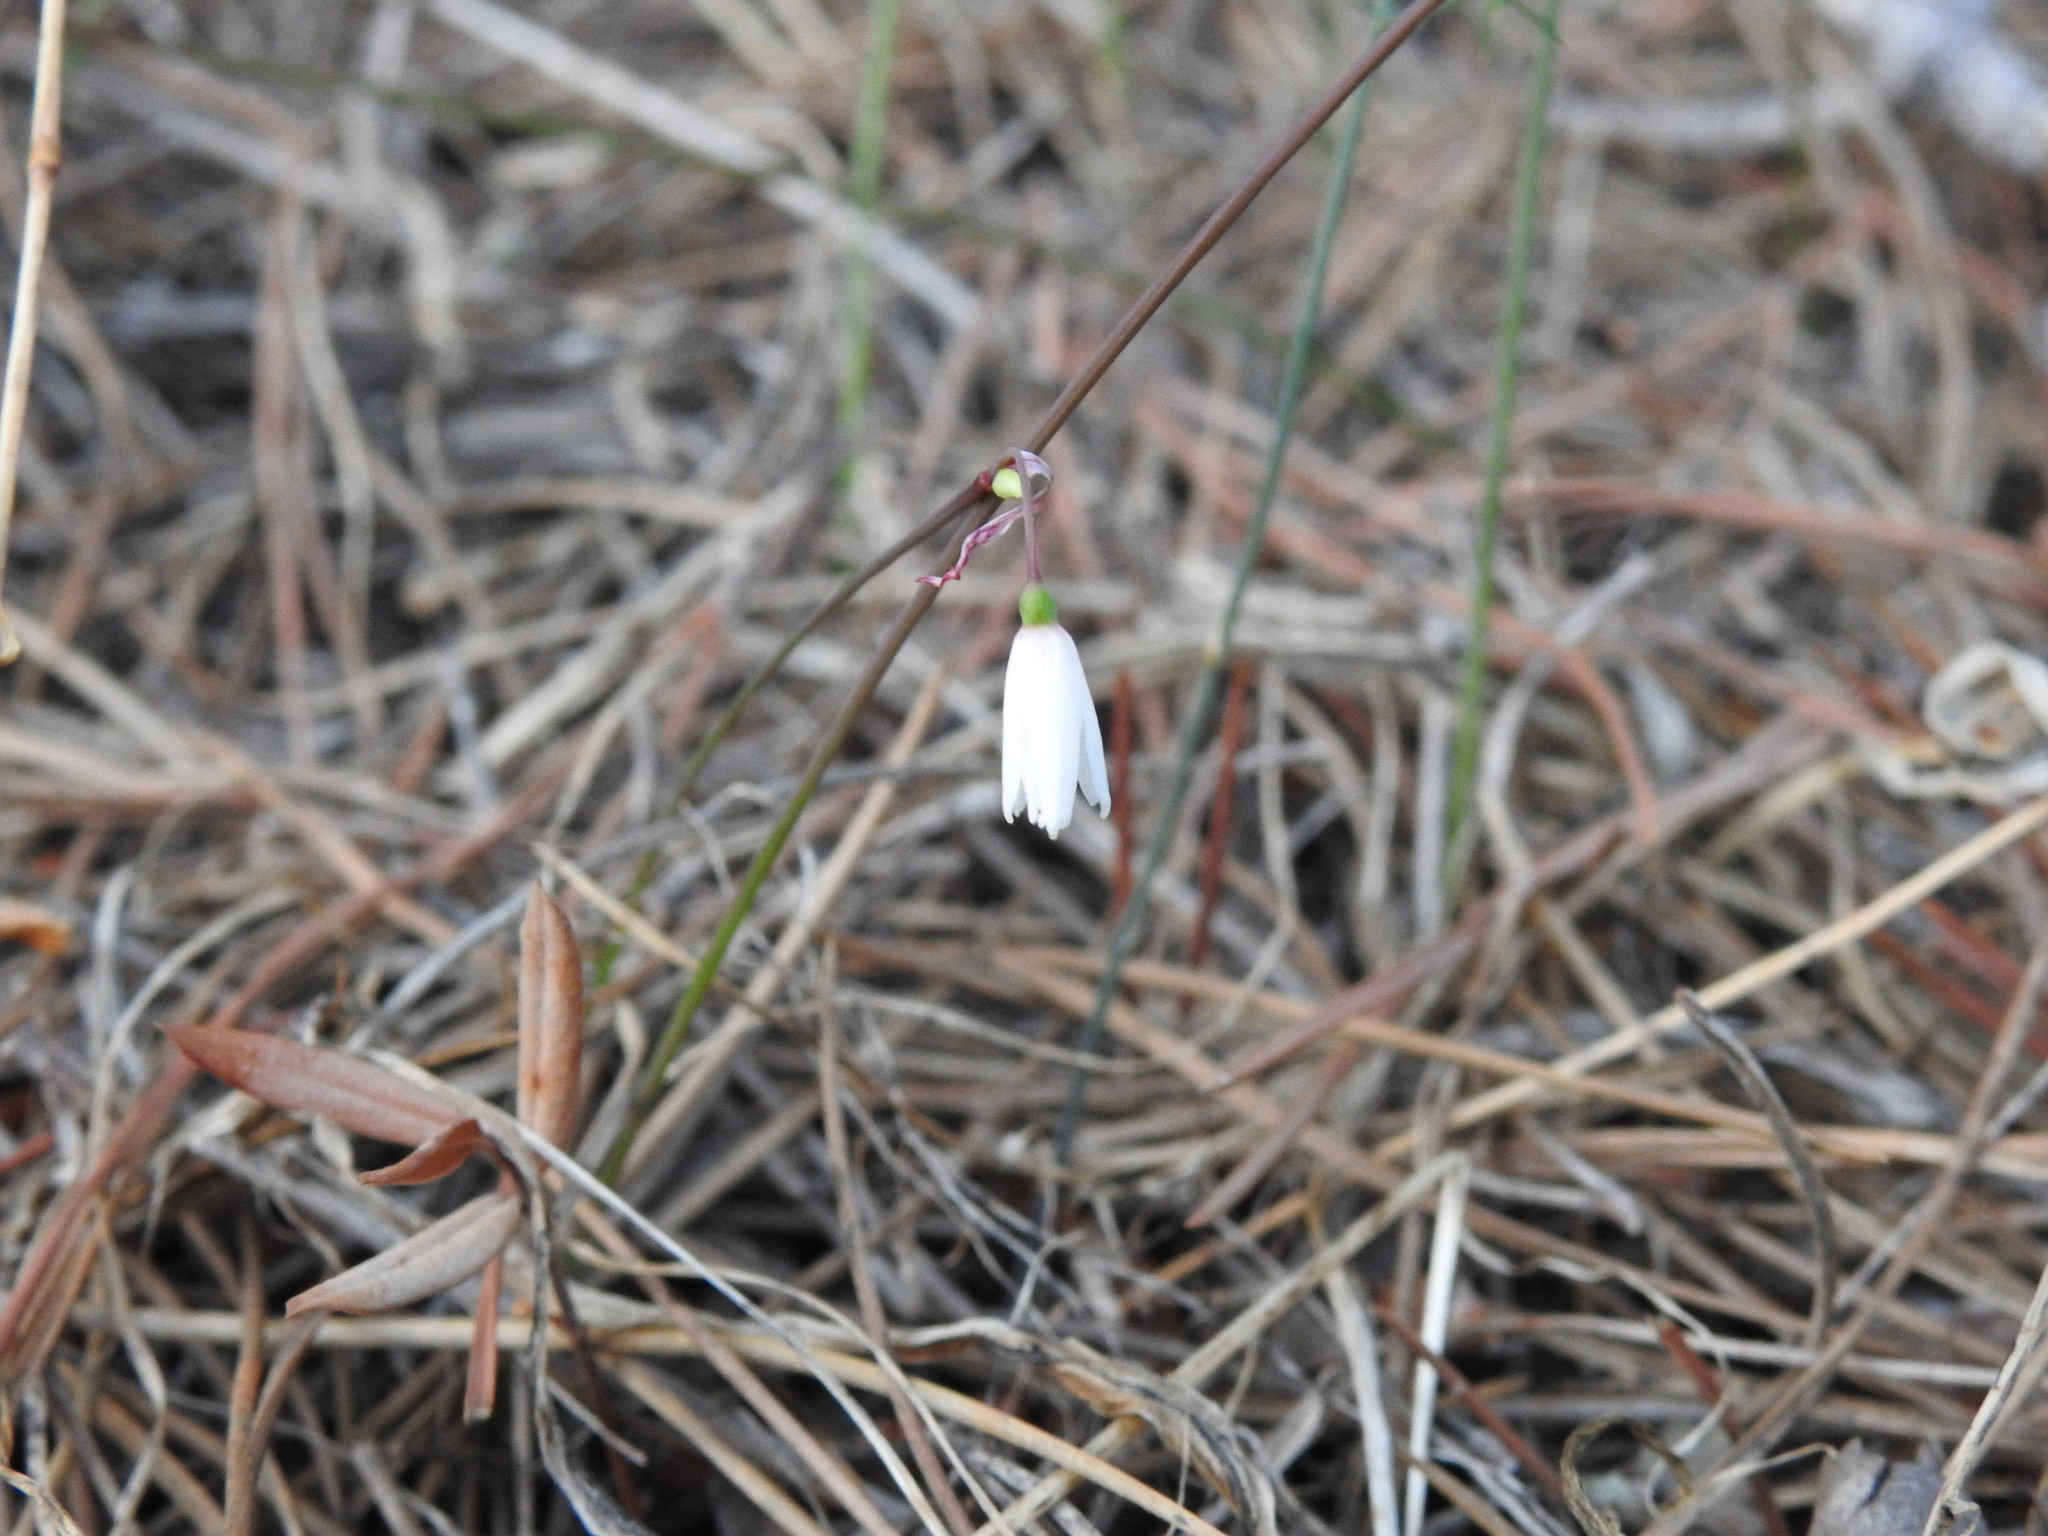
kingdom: Plantae
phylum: Tracheophyta
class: Liliopsida
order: Asparagales
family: Amaryllidaceae
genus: Acis
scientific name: Acis autumnalis
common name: Autumn snowflake
